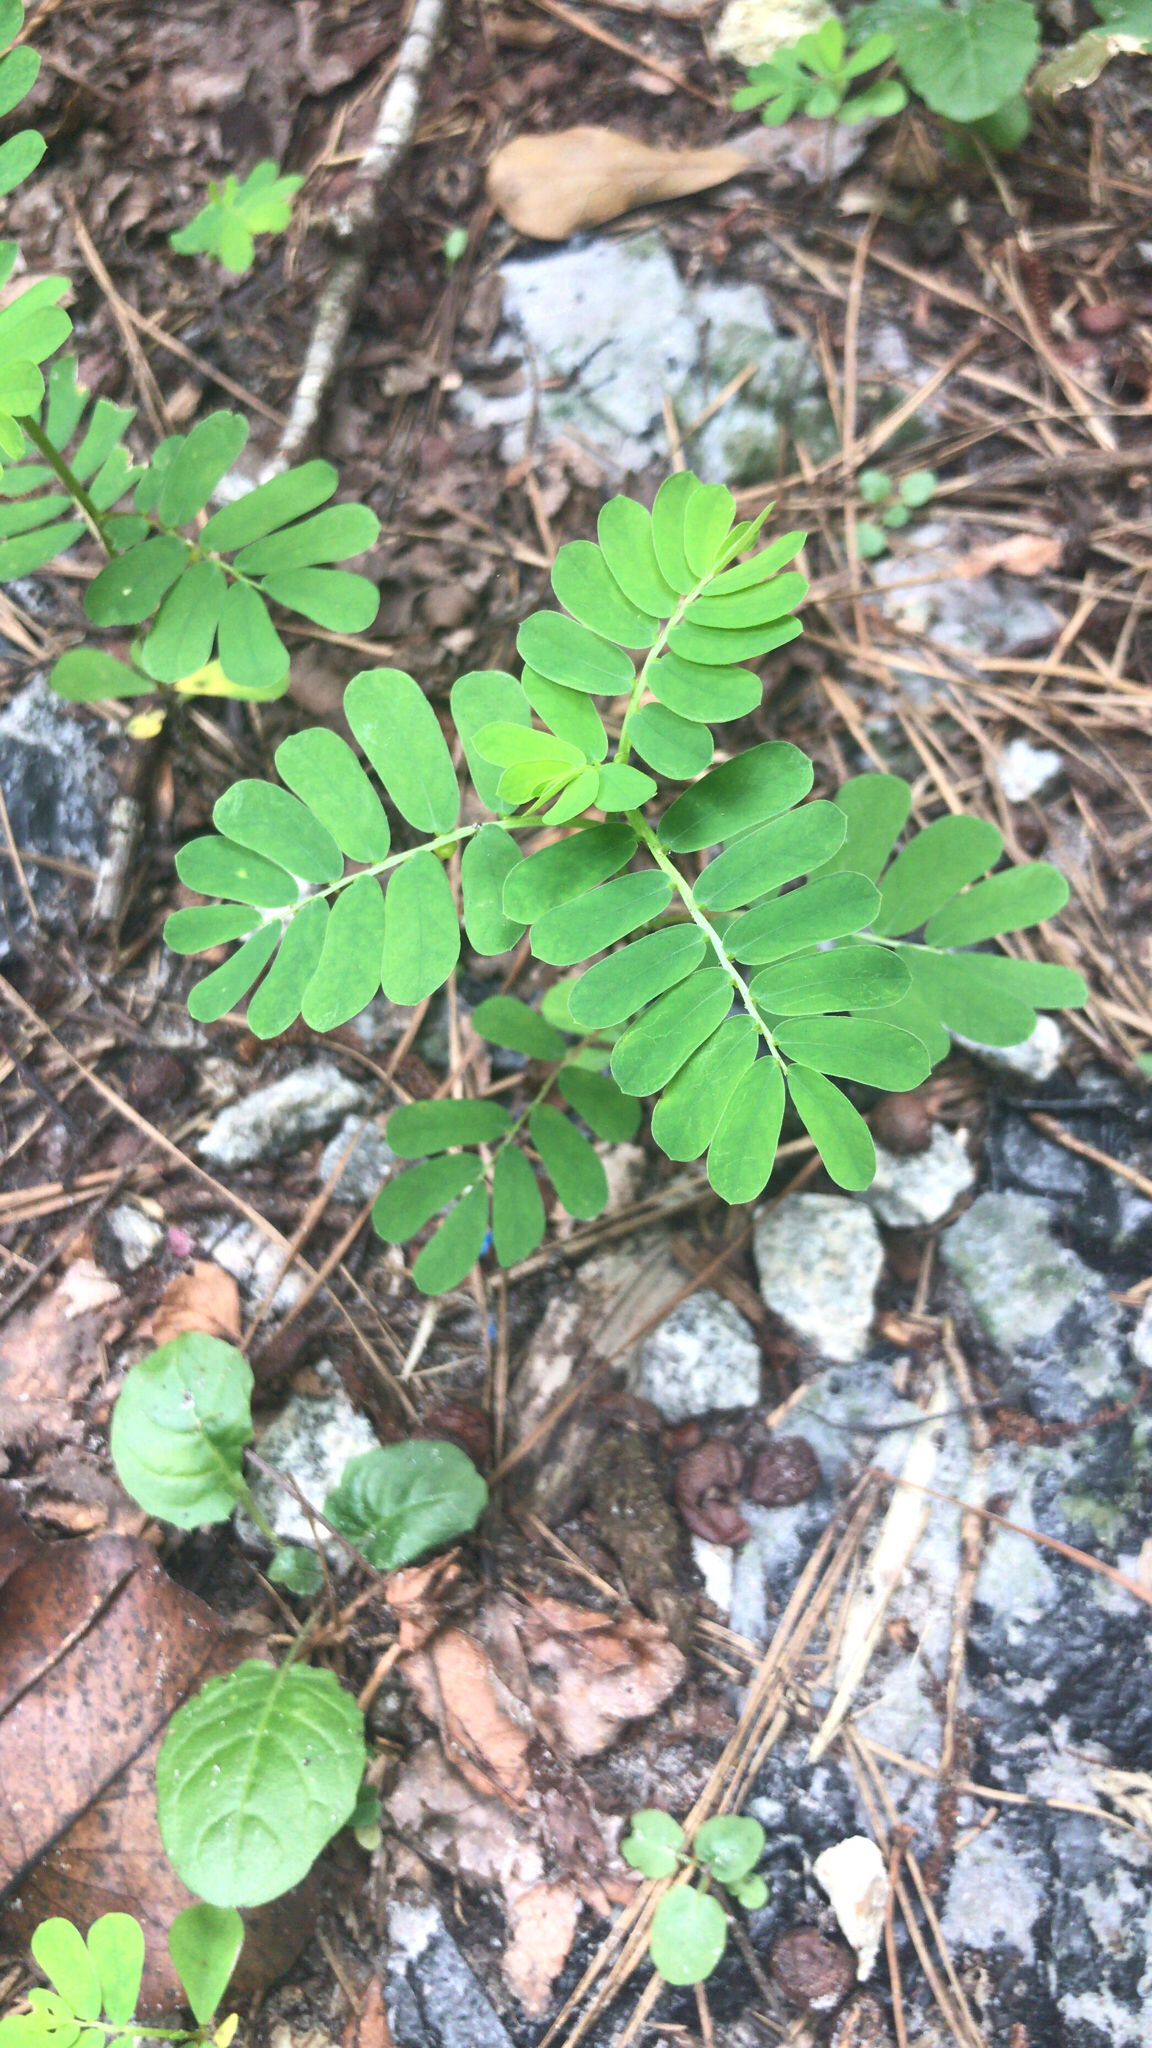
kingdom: Plantae
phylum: Tracheophyta
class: Magnoliopsida
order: Malpighiales
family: Phyllanthaceae
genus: Phyllanthus
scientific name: Phyllanthus urinaria
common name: Chamber bitter
